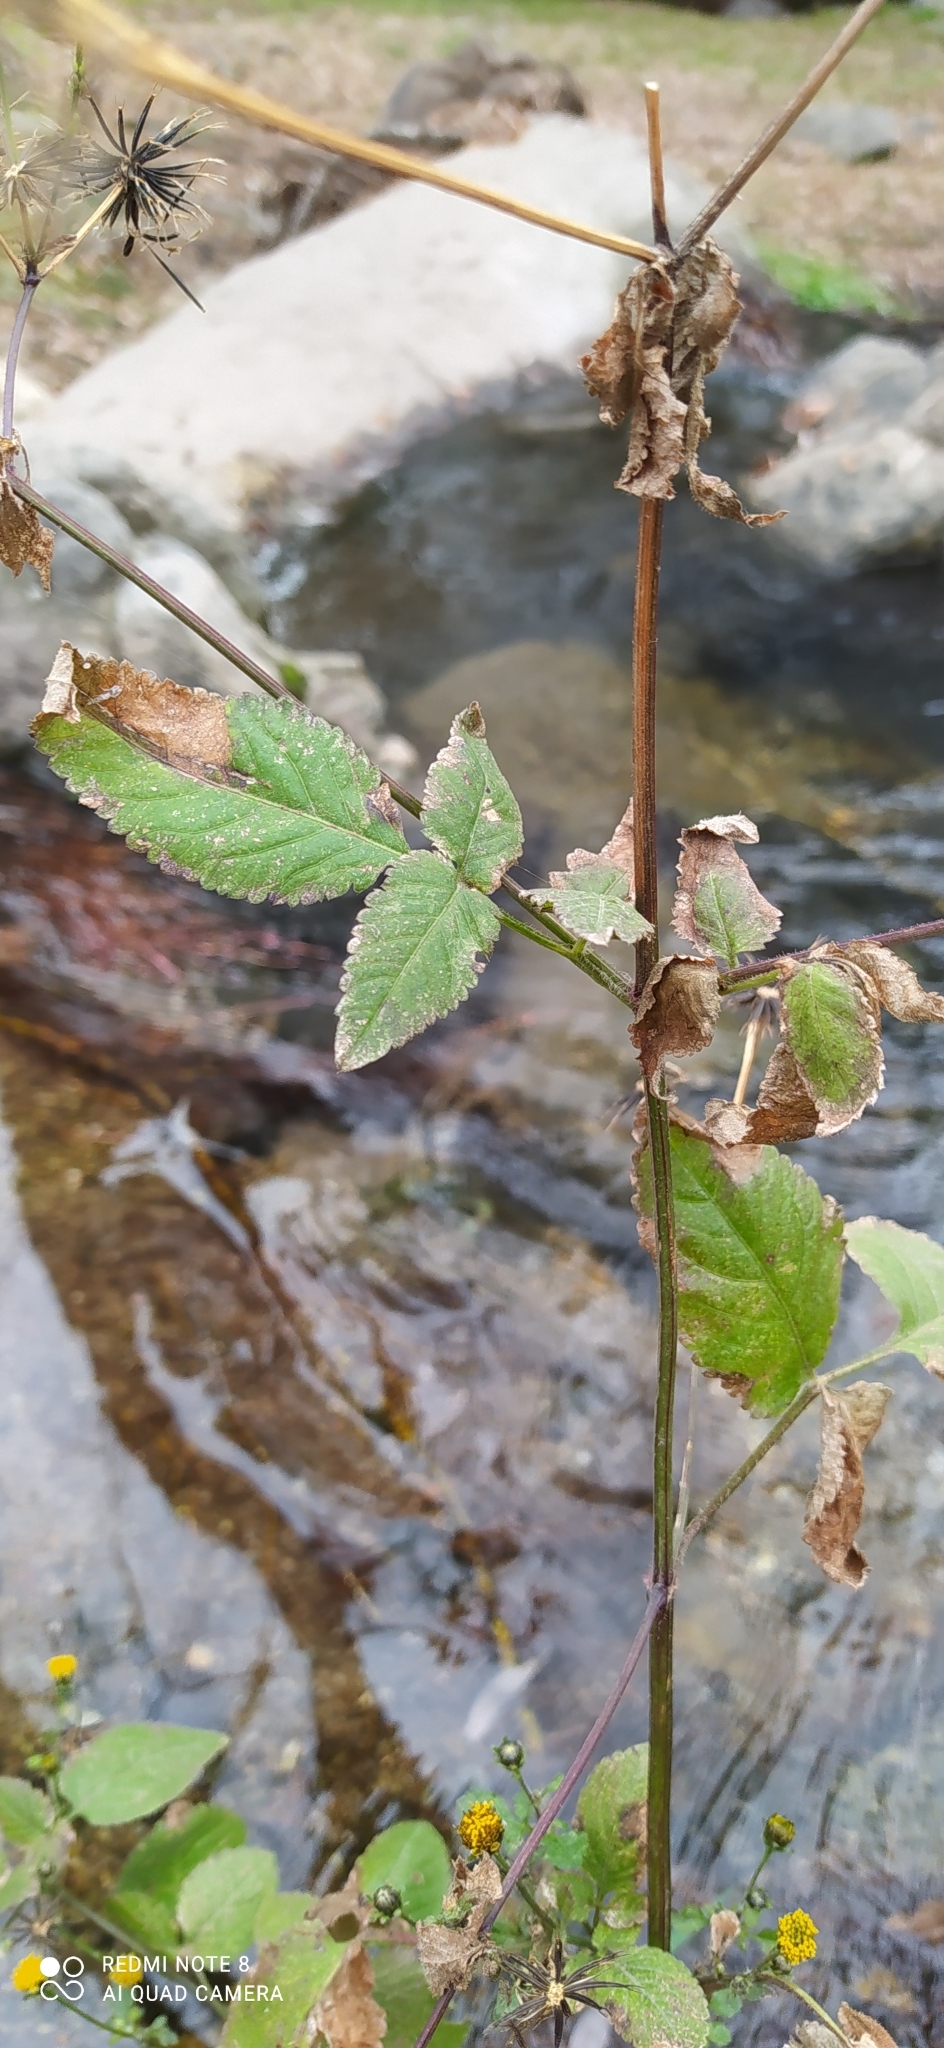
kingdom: Plantae
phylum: Tracheophyta
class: Magnoliopsida
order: Asterales
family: Asteraceae
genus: Bidens
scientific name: Bidens pilosa
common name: Black-jack
